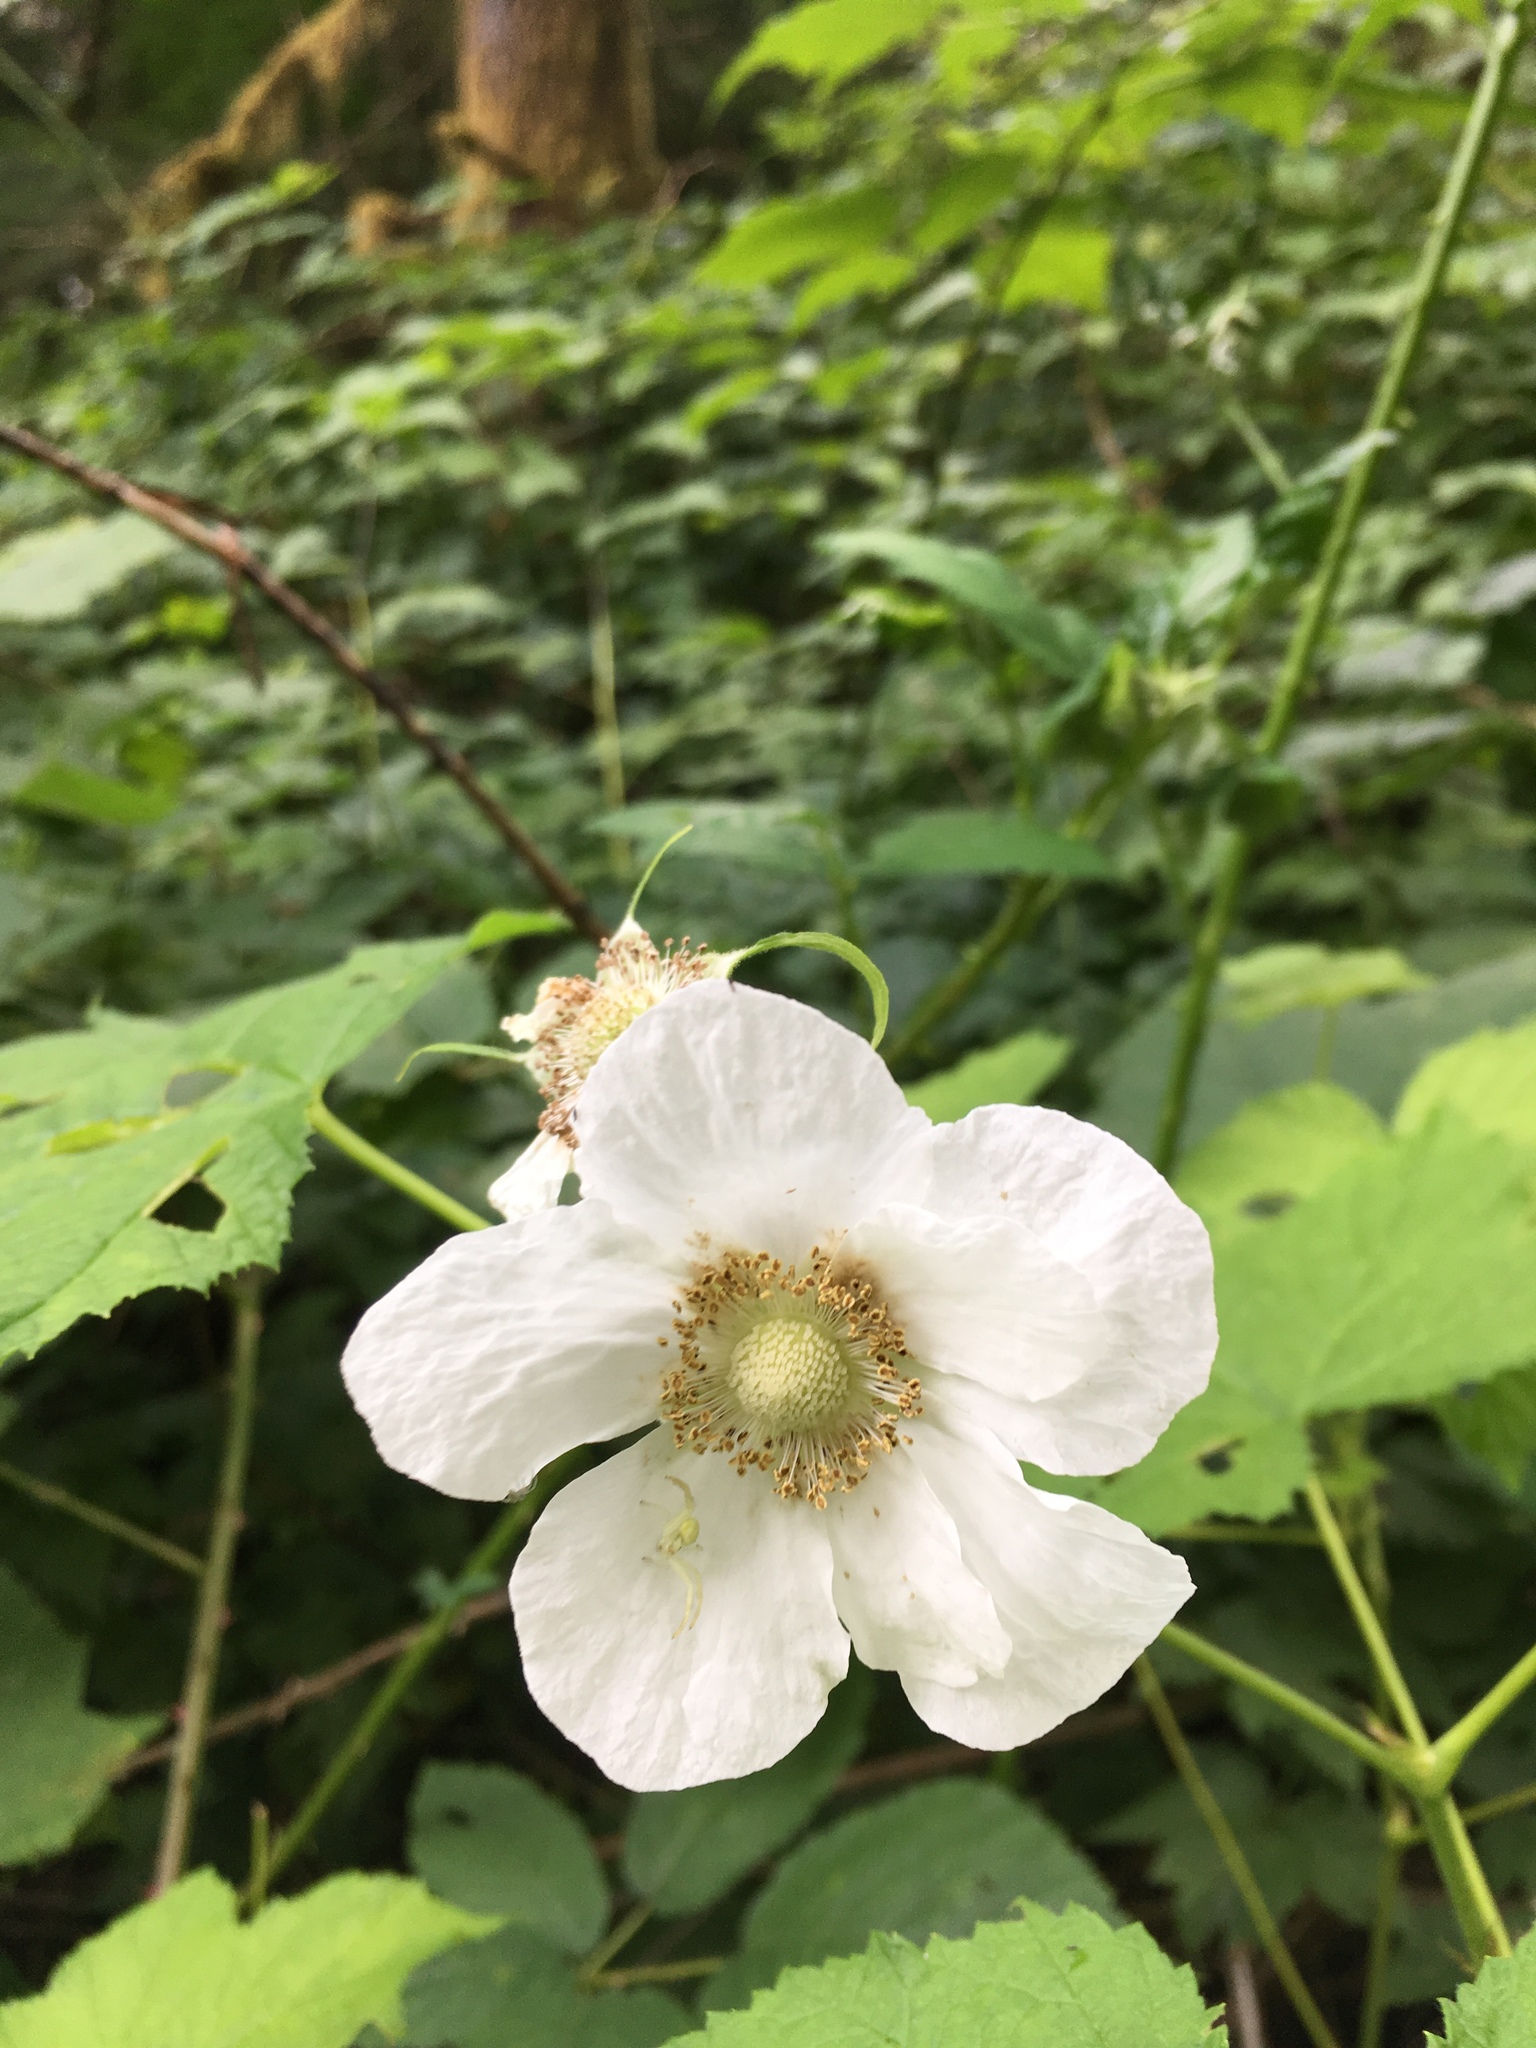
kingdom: Plantae
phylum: Tracheophyta
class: Magnoliopsida
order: Rosales
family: Rosaceae
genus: Rubus
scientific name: Rubus parviflorus
